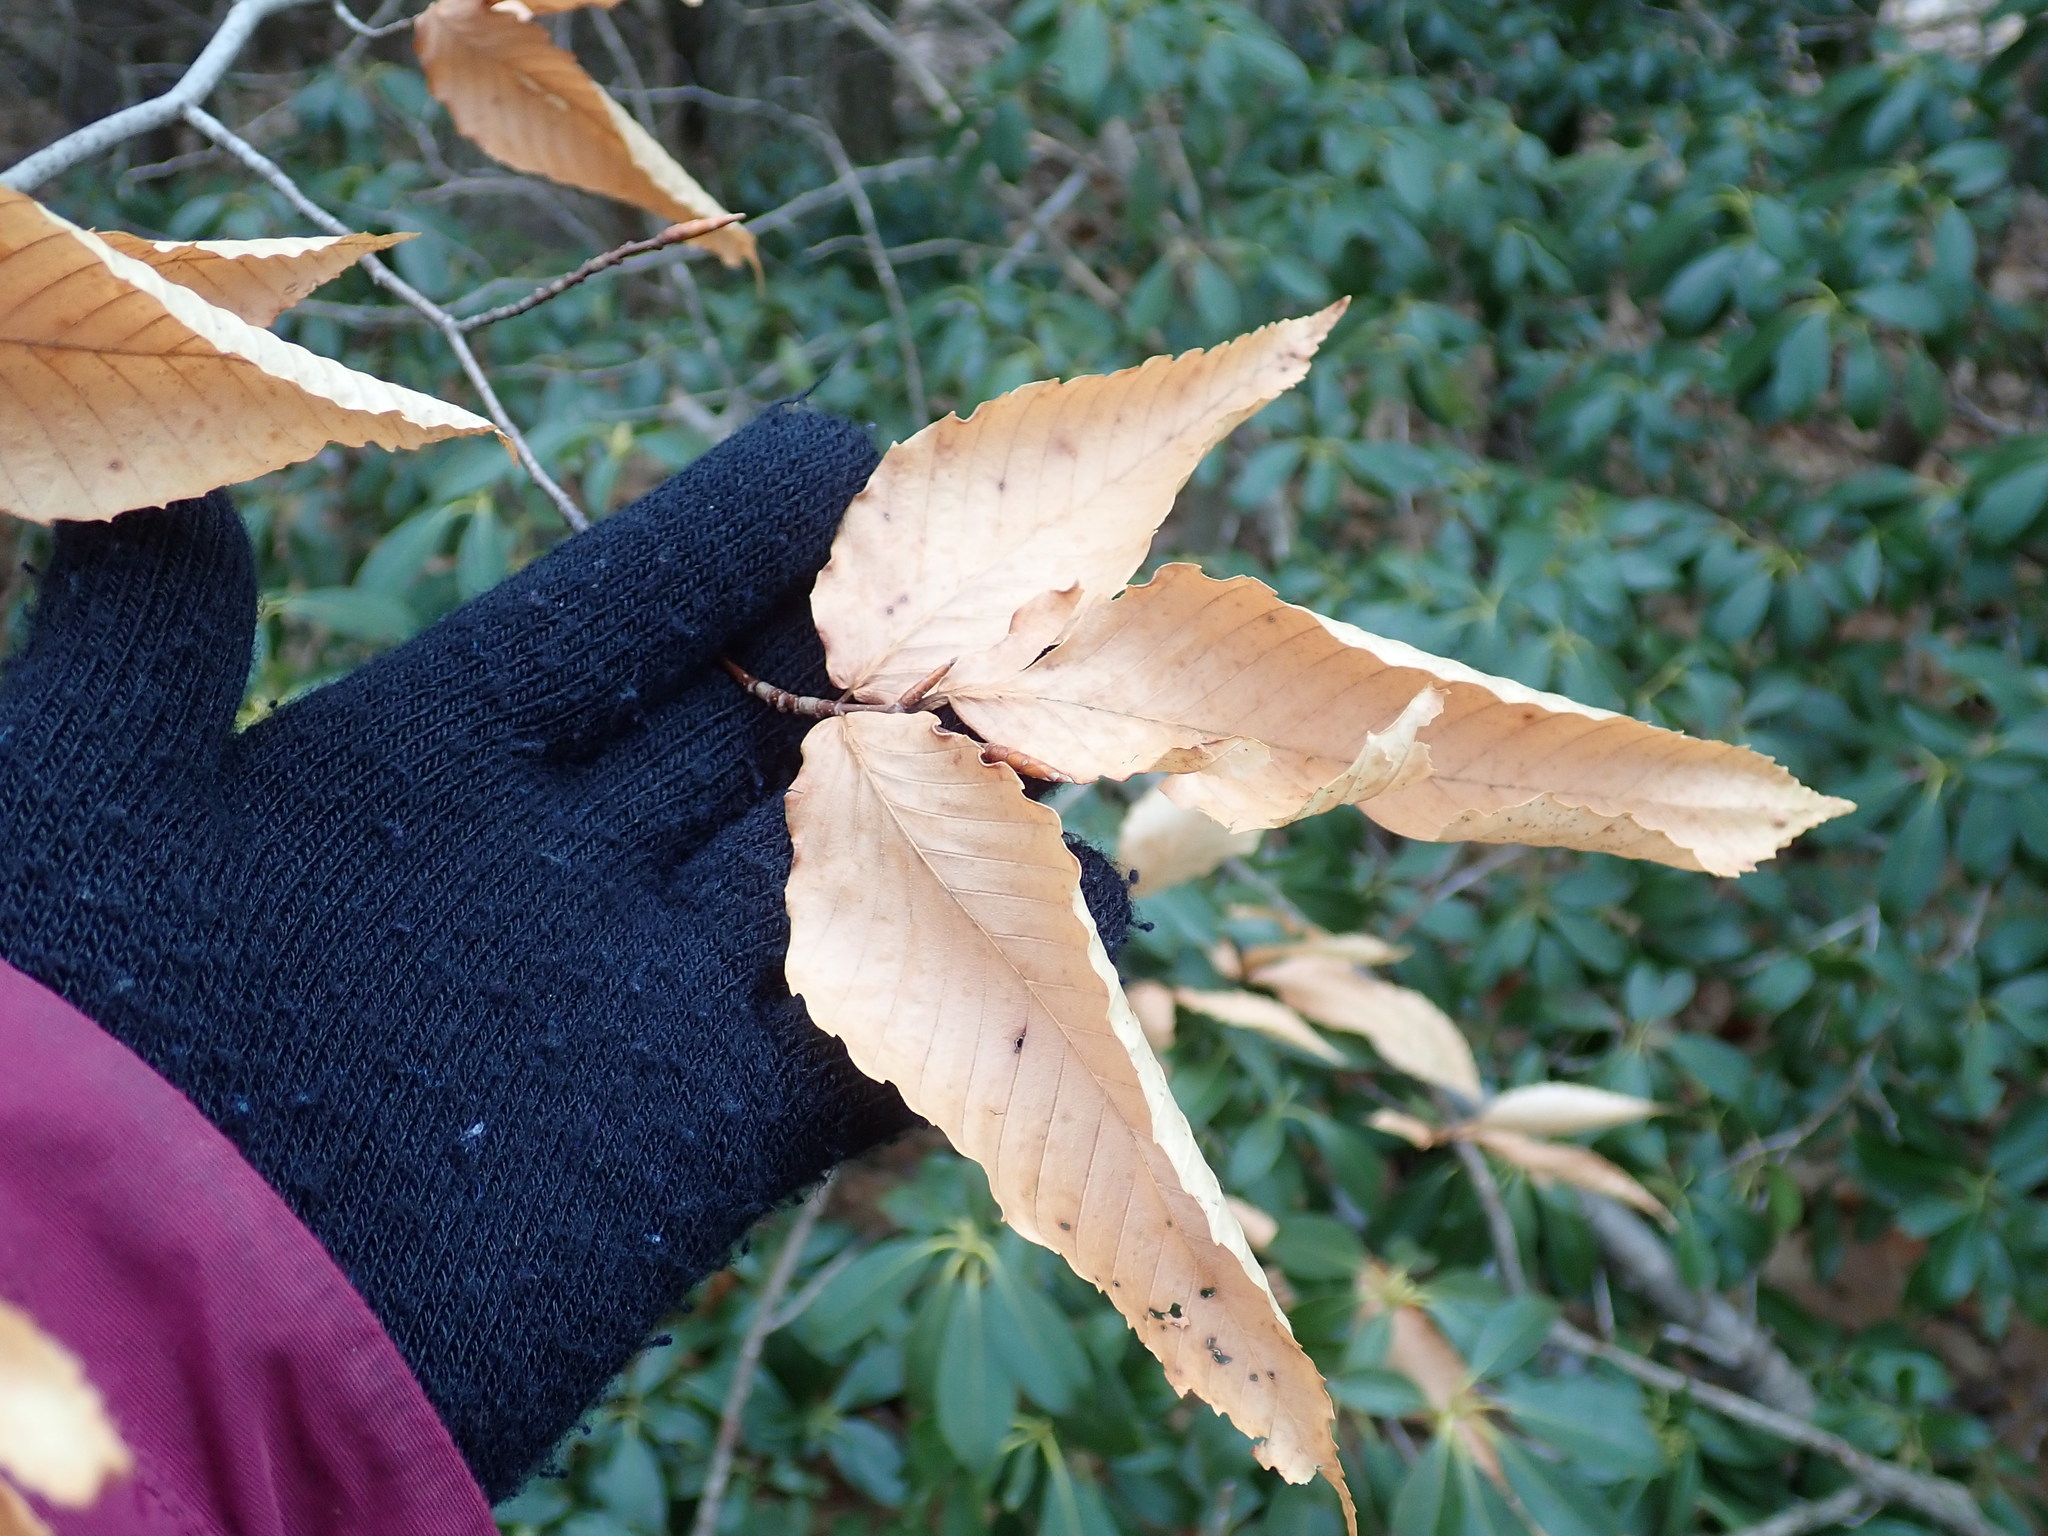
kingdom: Plantae
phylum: Tracheophyta
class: Magnoliopsida
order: Fagales
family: Fagaceae
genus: Fagus
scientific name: Fagus grandifolia
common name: American beech
